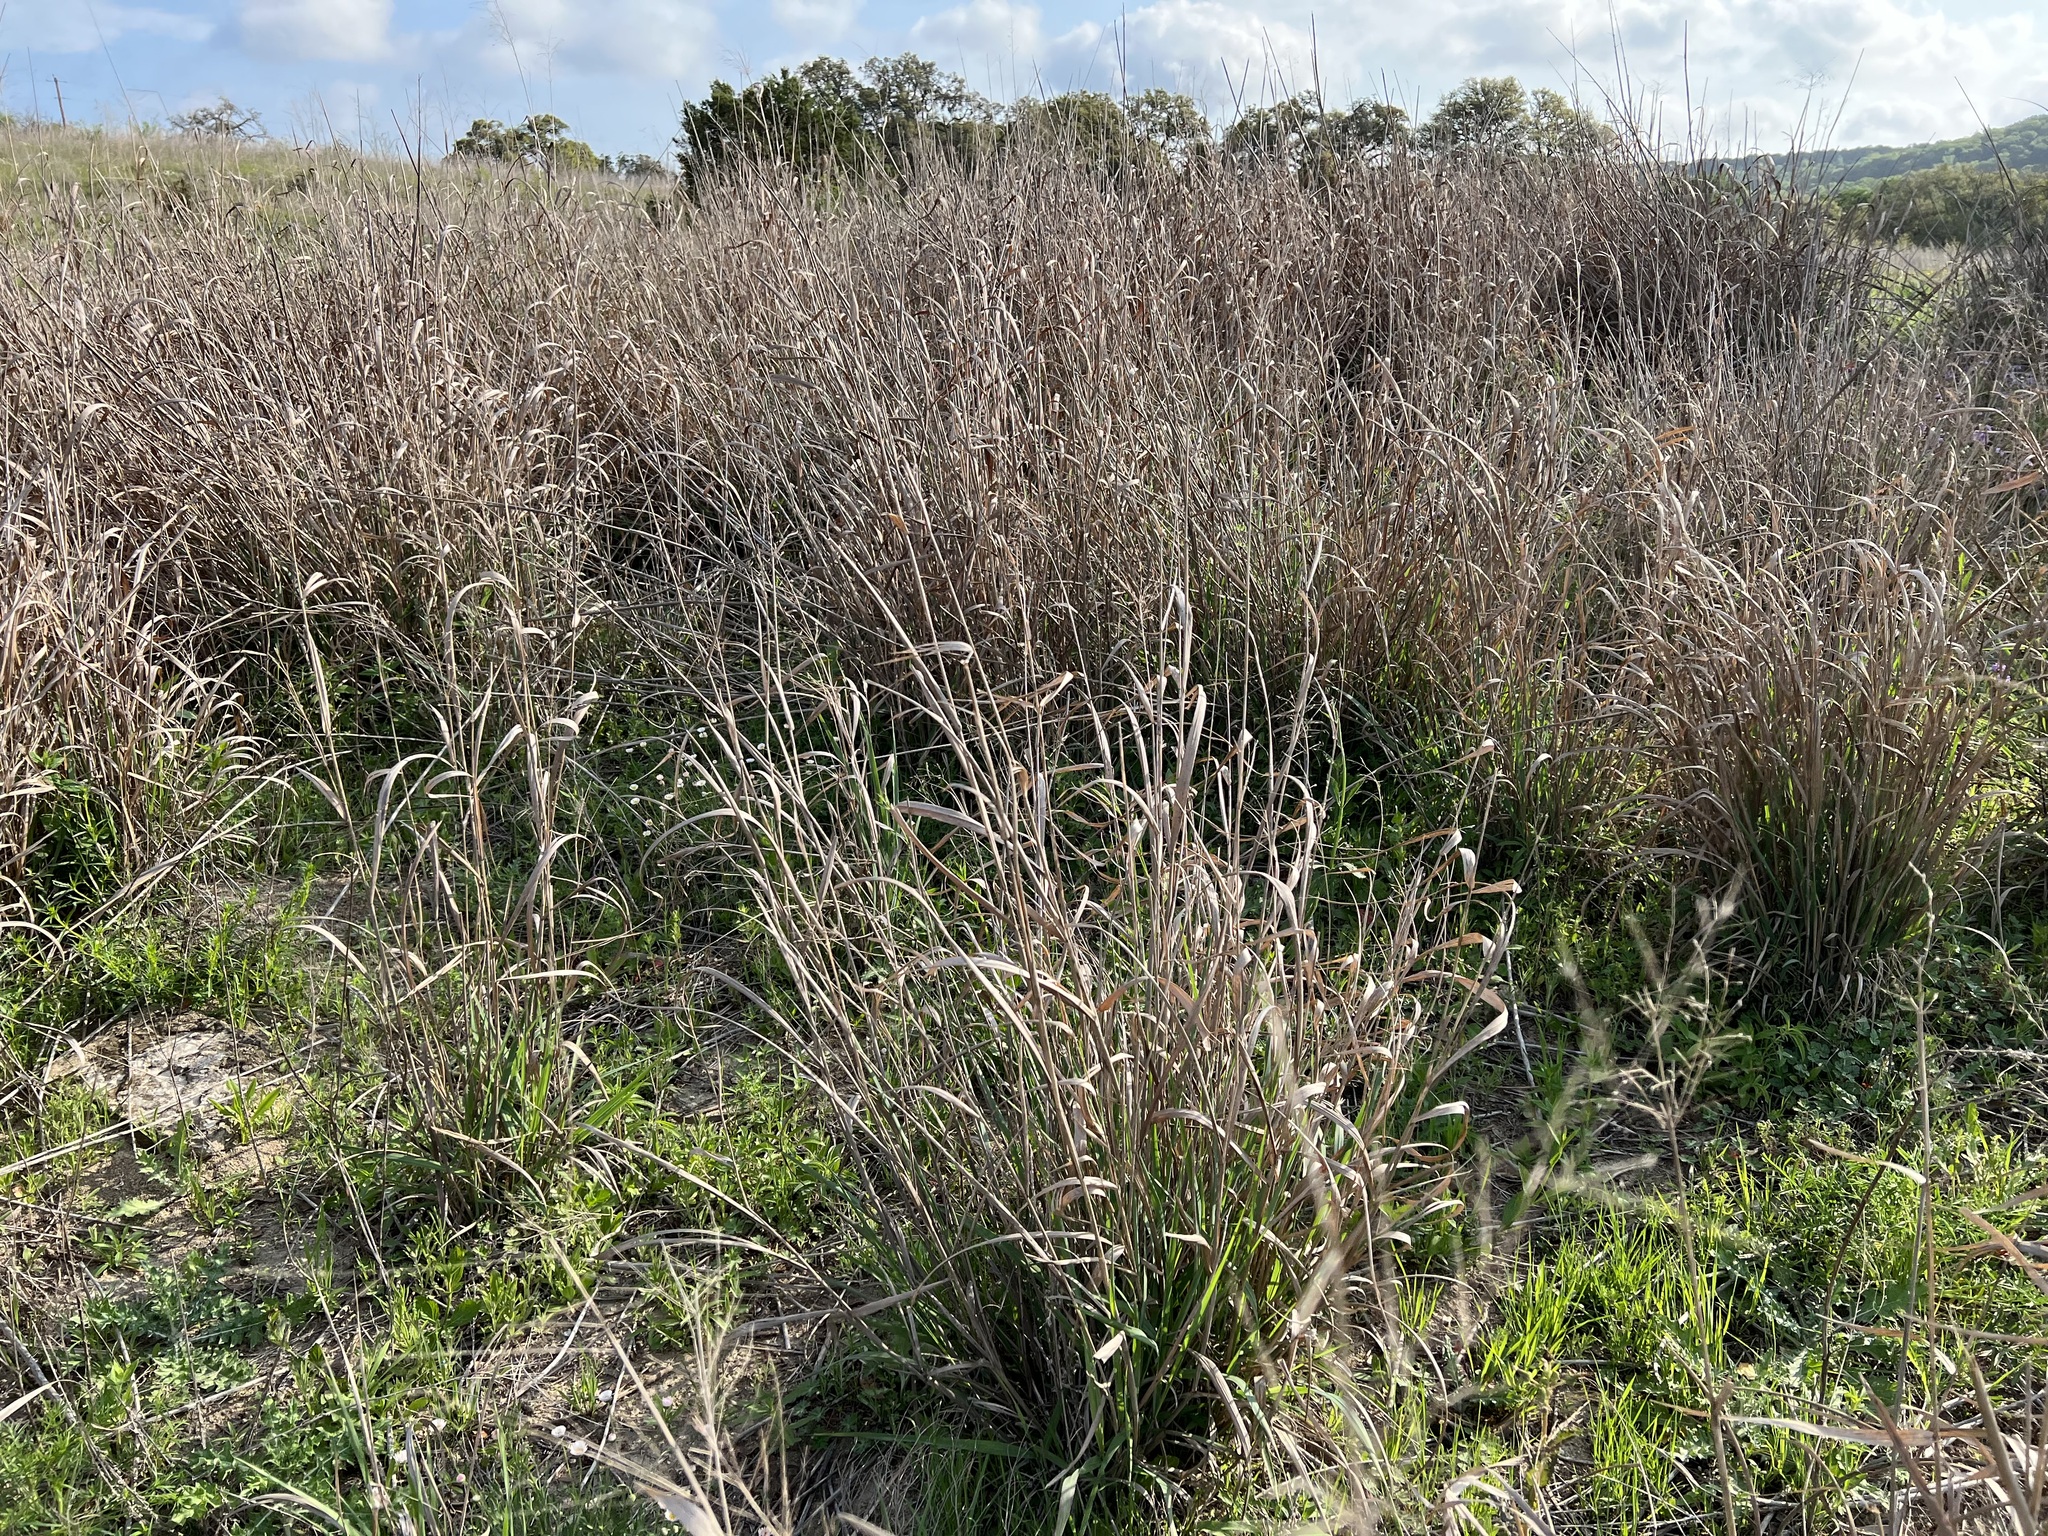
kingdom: Plantae
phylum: Tracheophyta
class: Liliopsida
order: Poales
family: Poaceae
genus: Panicum
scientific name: Panicum virgatum
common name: Switchgrass
